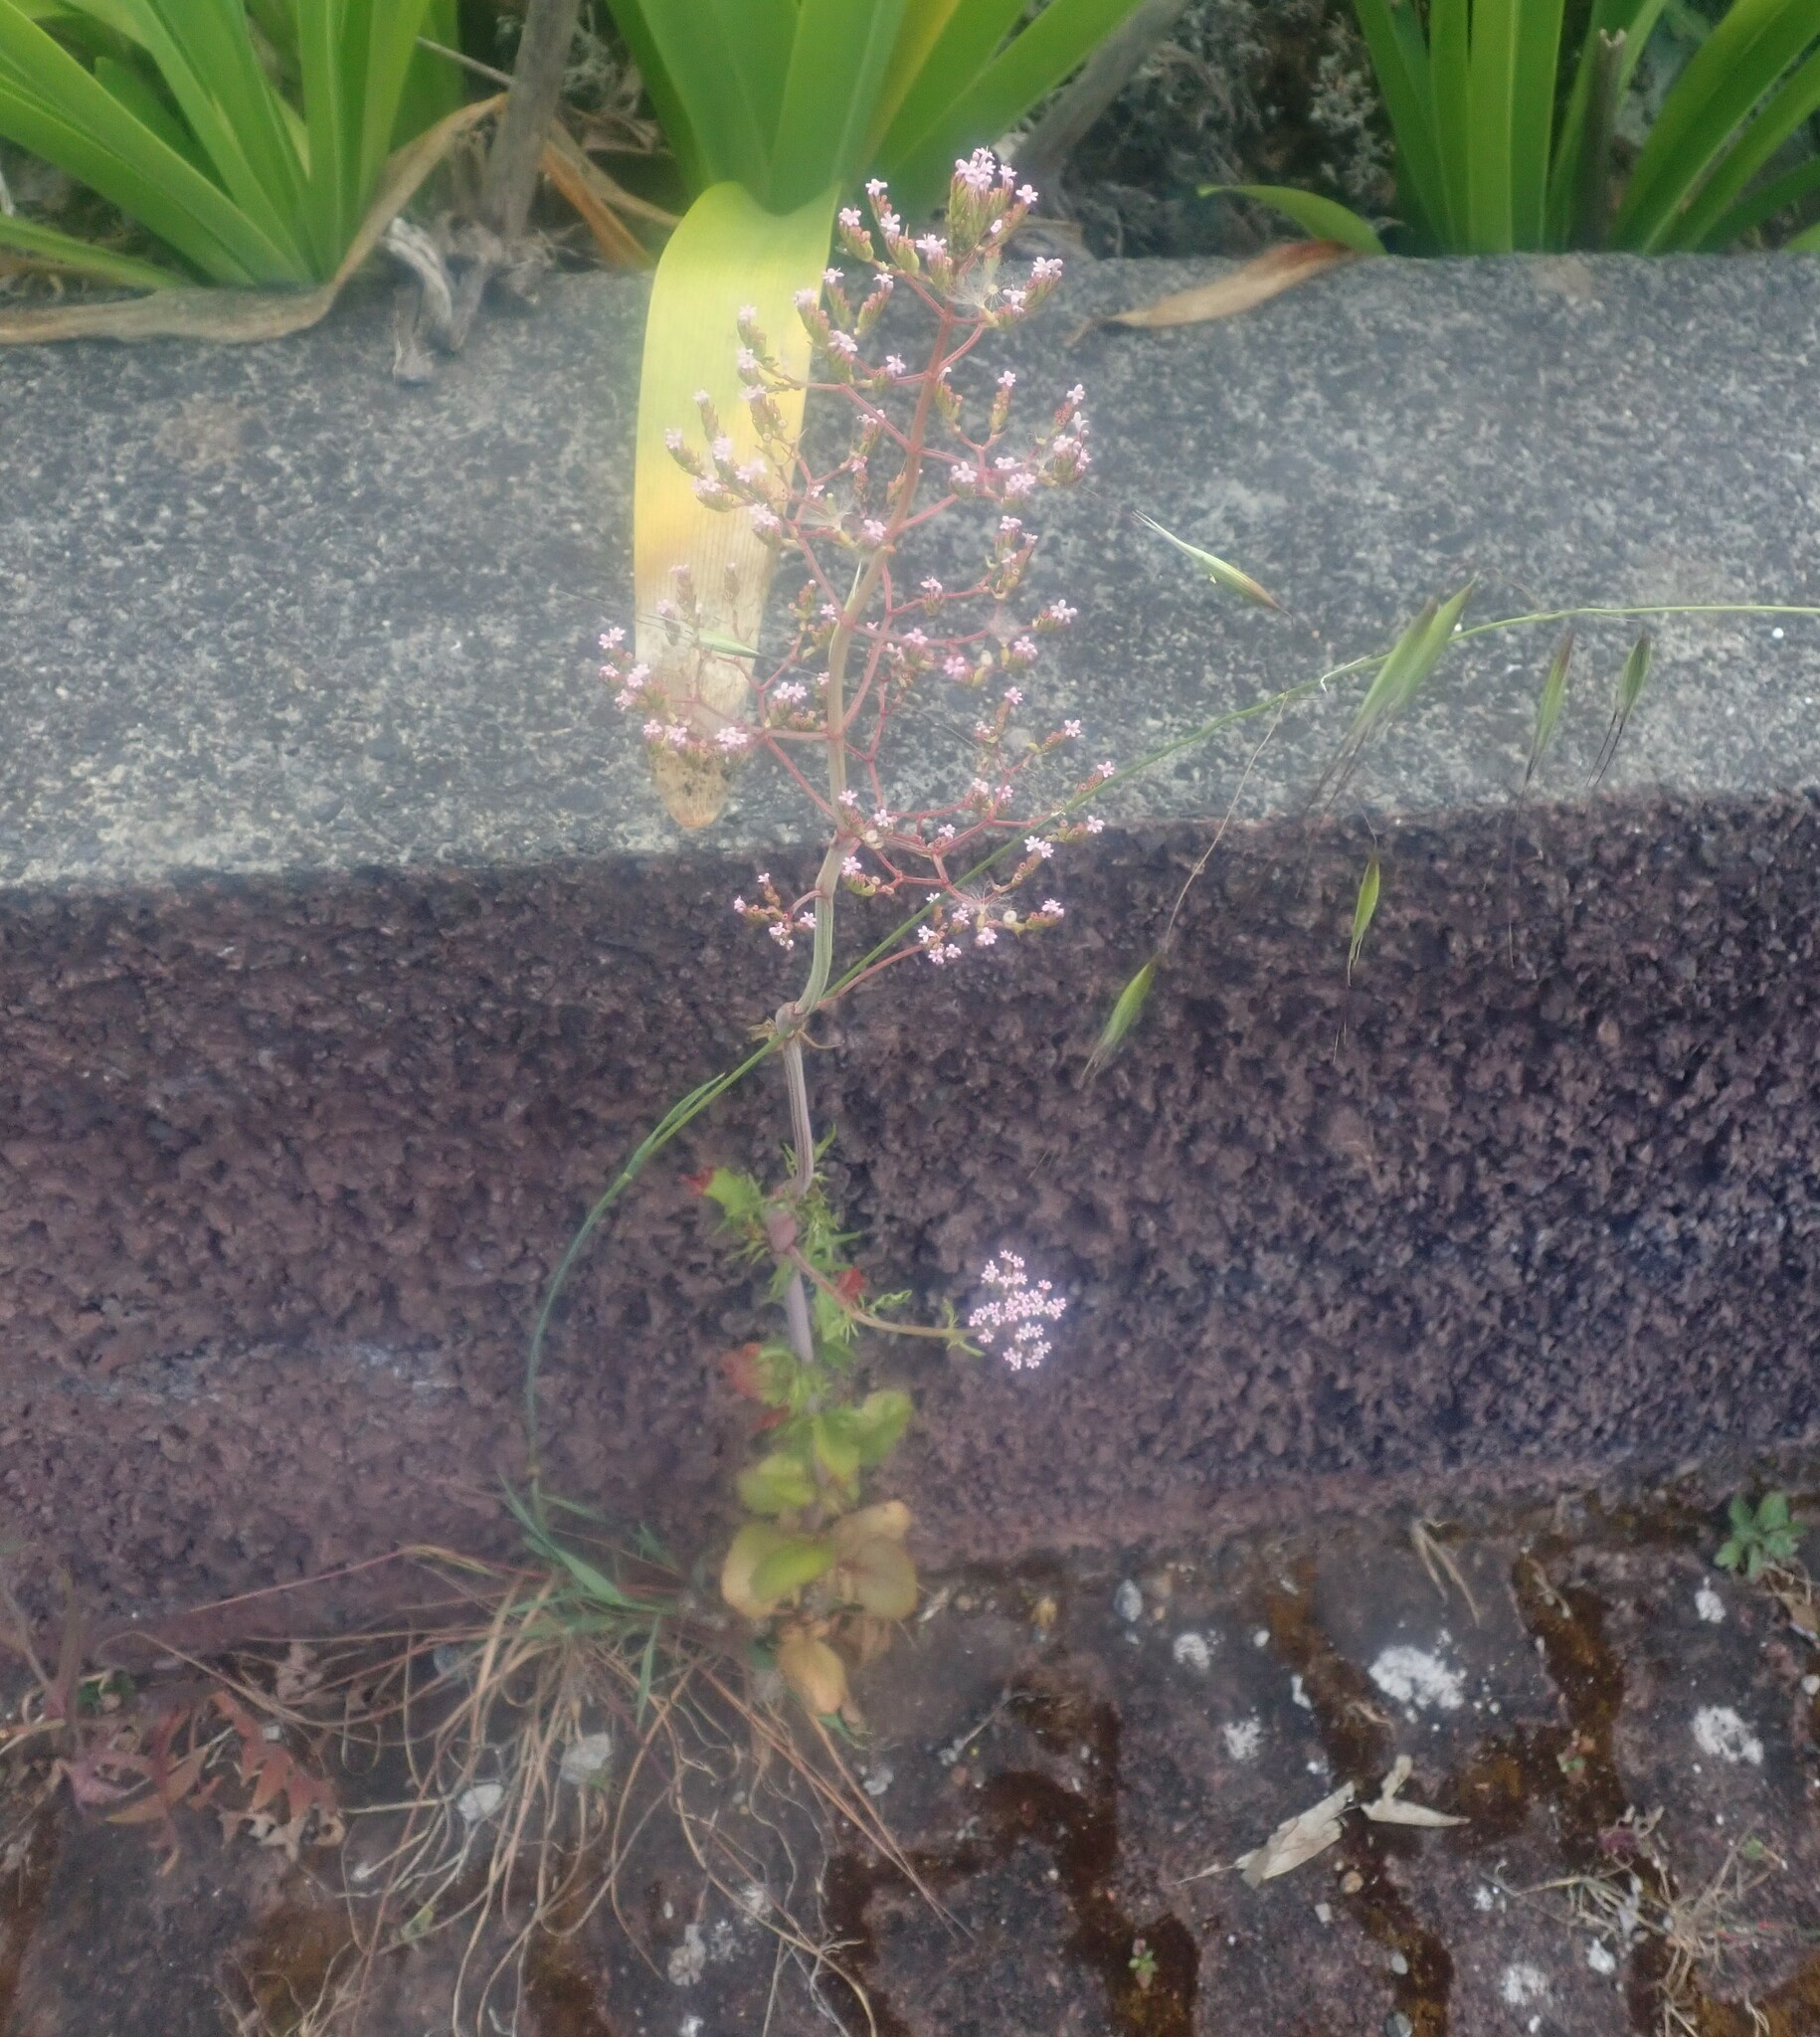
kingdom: Plantae
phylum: Tracheophyta
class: Magnoliopsida
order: Dipsacales
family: Caprifoliaceae
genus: Centranthus
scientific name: Centranthus calcitrapae
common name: Annual valerian
